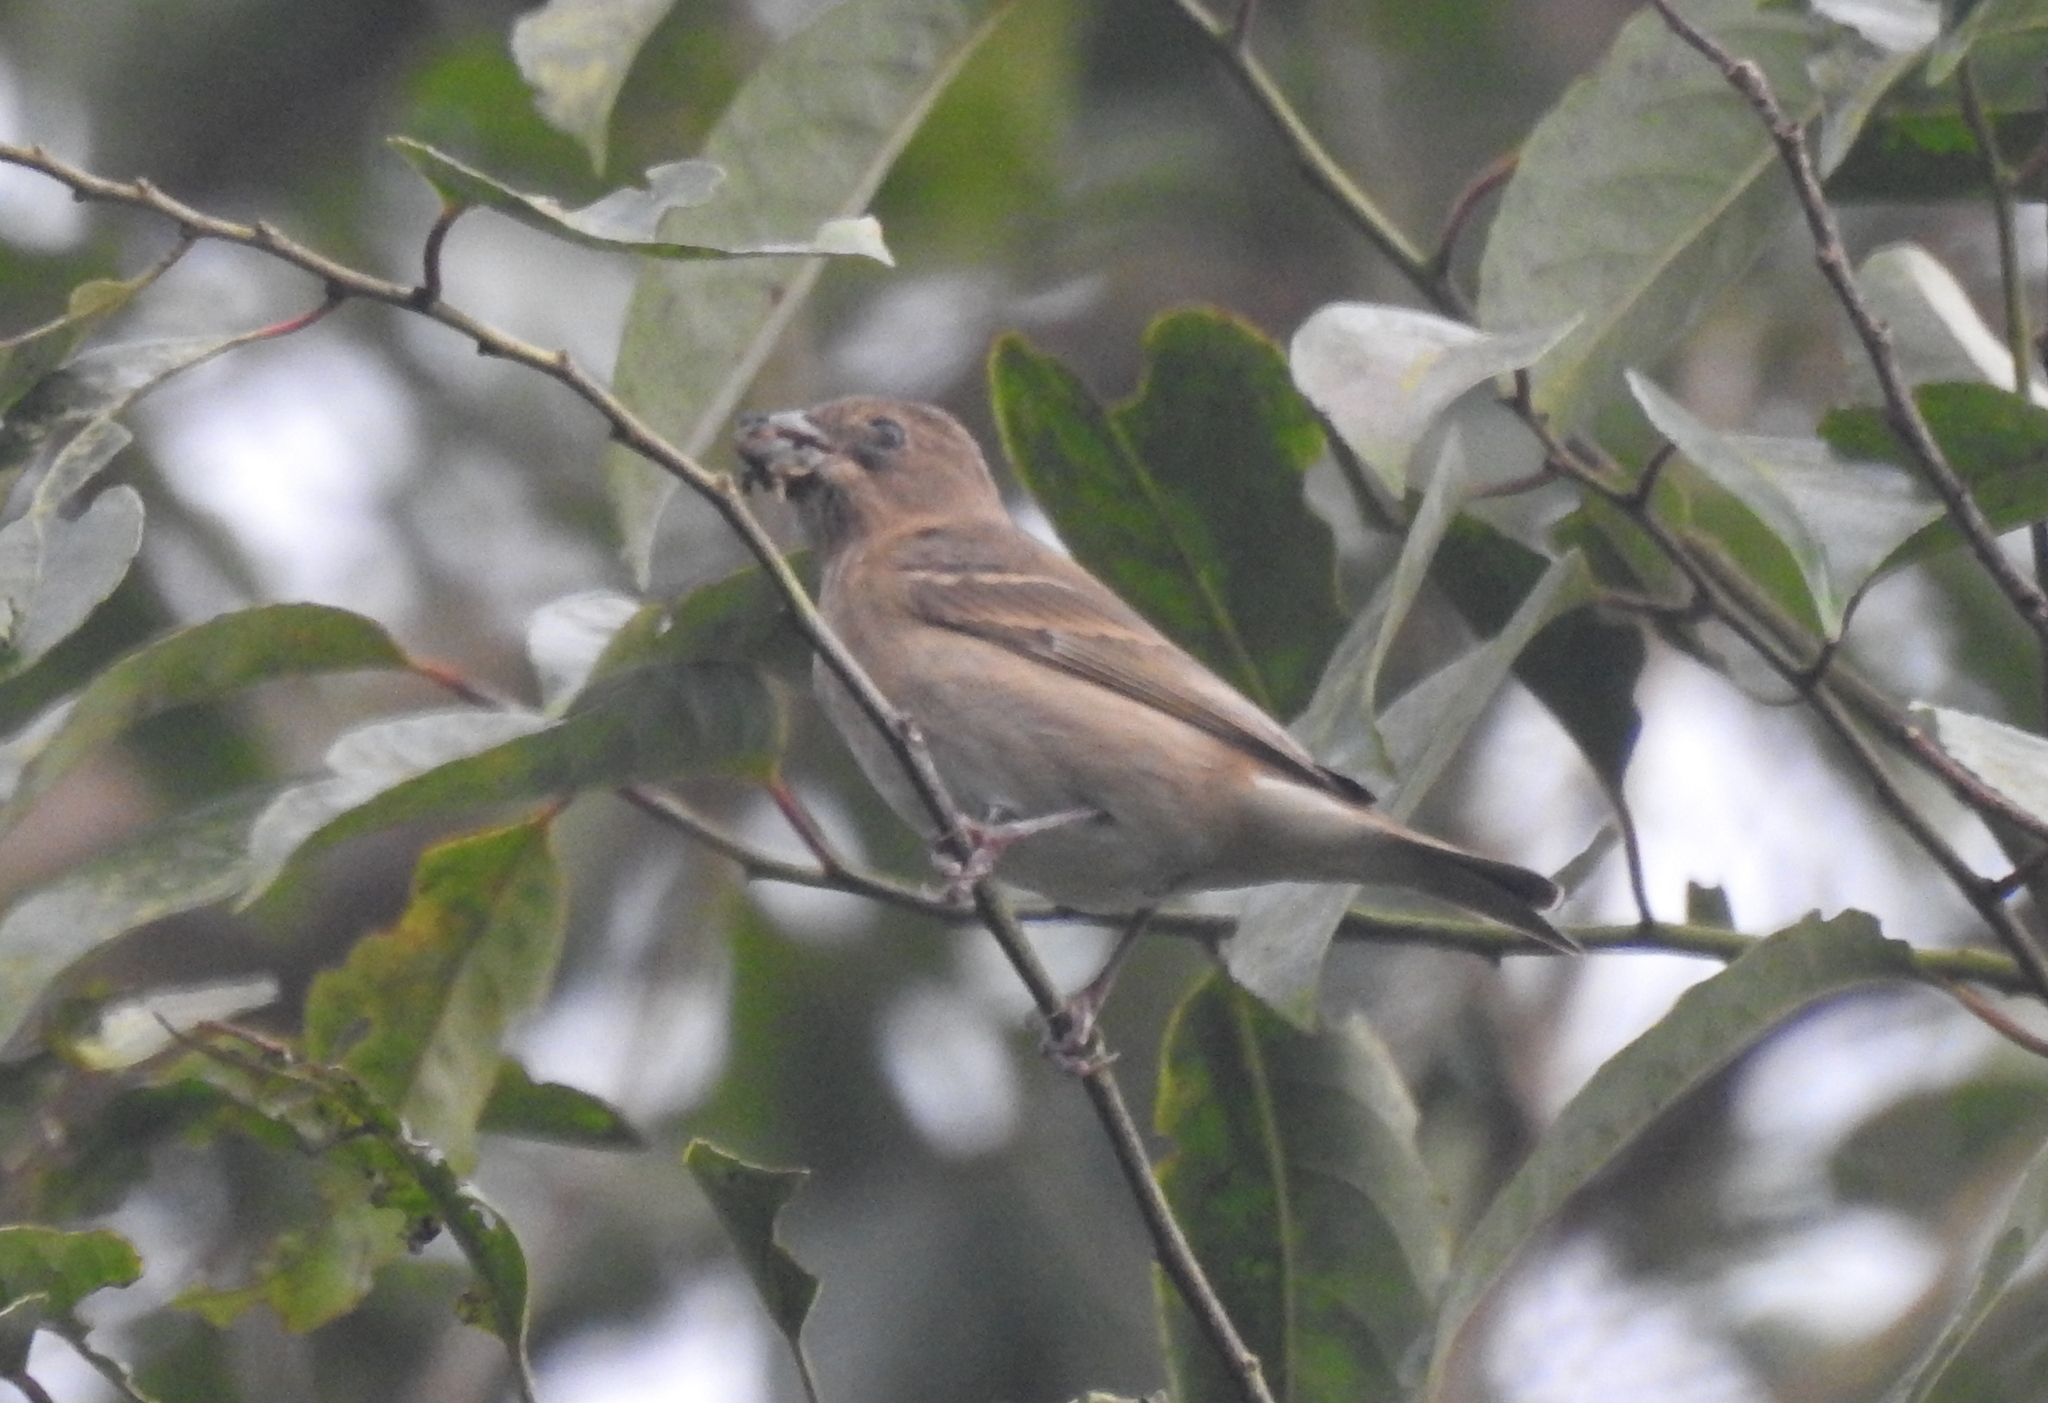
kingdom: Animalia
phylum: Chordata
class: Aves
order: Passeriformes
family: Fringillidae
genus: Carpodacus
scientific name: Carpodacus erythrinus
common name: Common rosefinch
